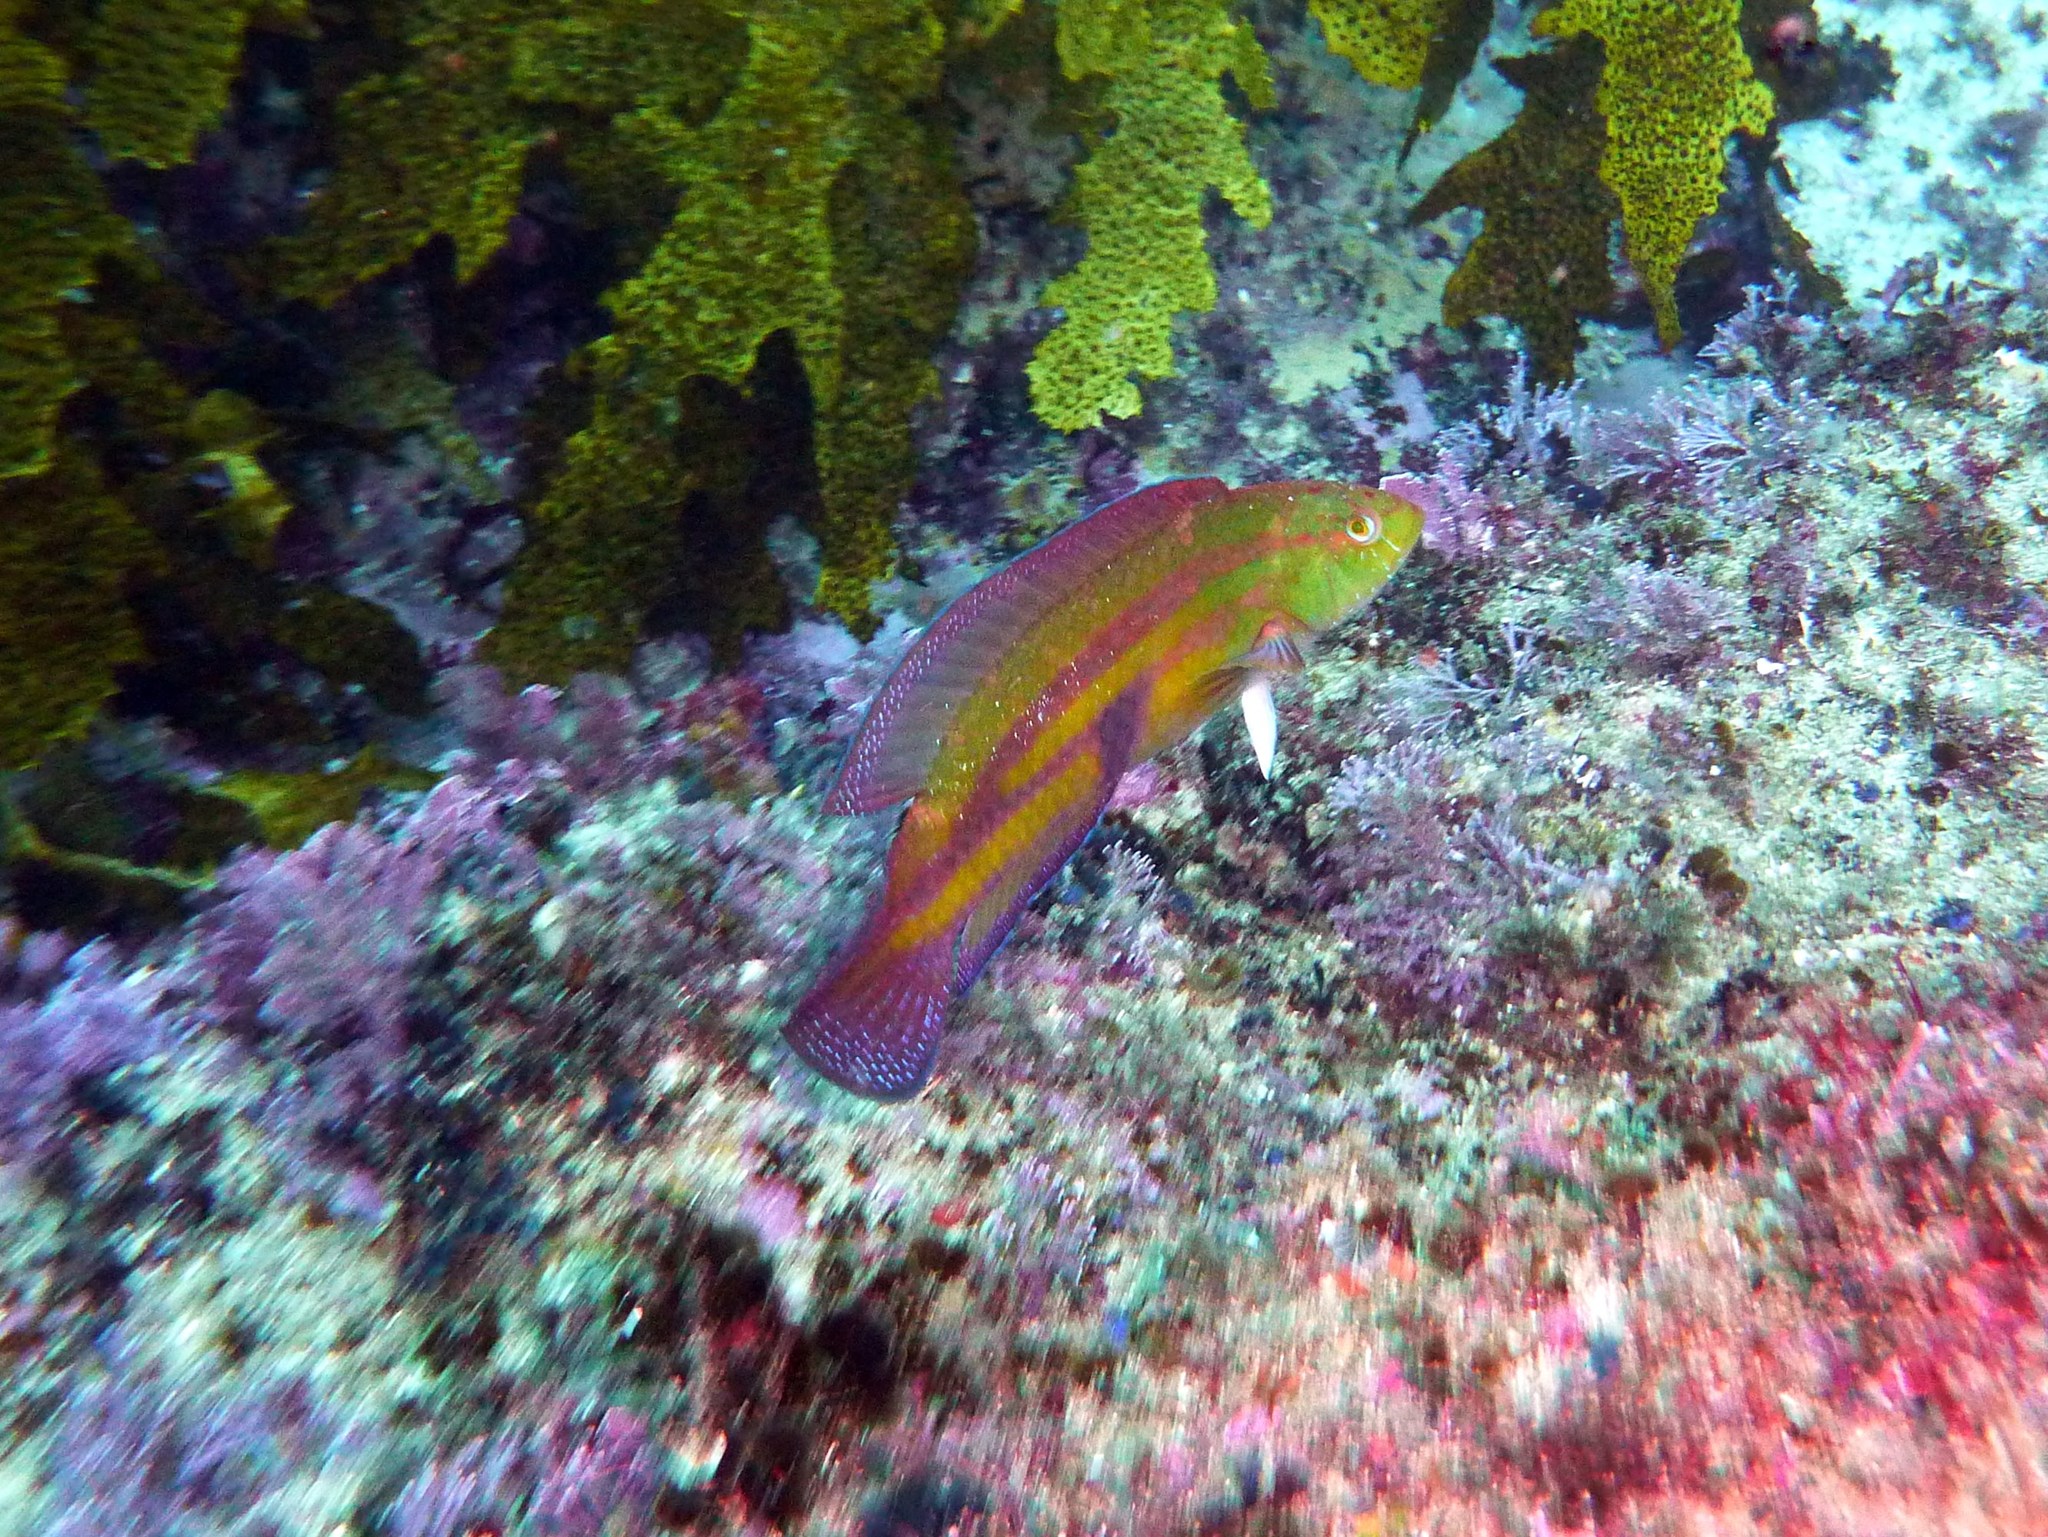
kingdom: Animalia
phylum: Chordata
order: Perciformes
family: Labridae
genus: Pictilabrus
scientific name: Pictilabrus laticlavius
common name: Patrician wrasse
